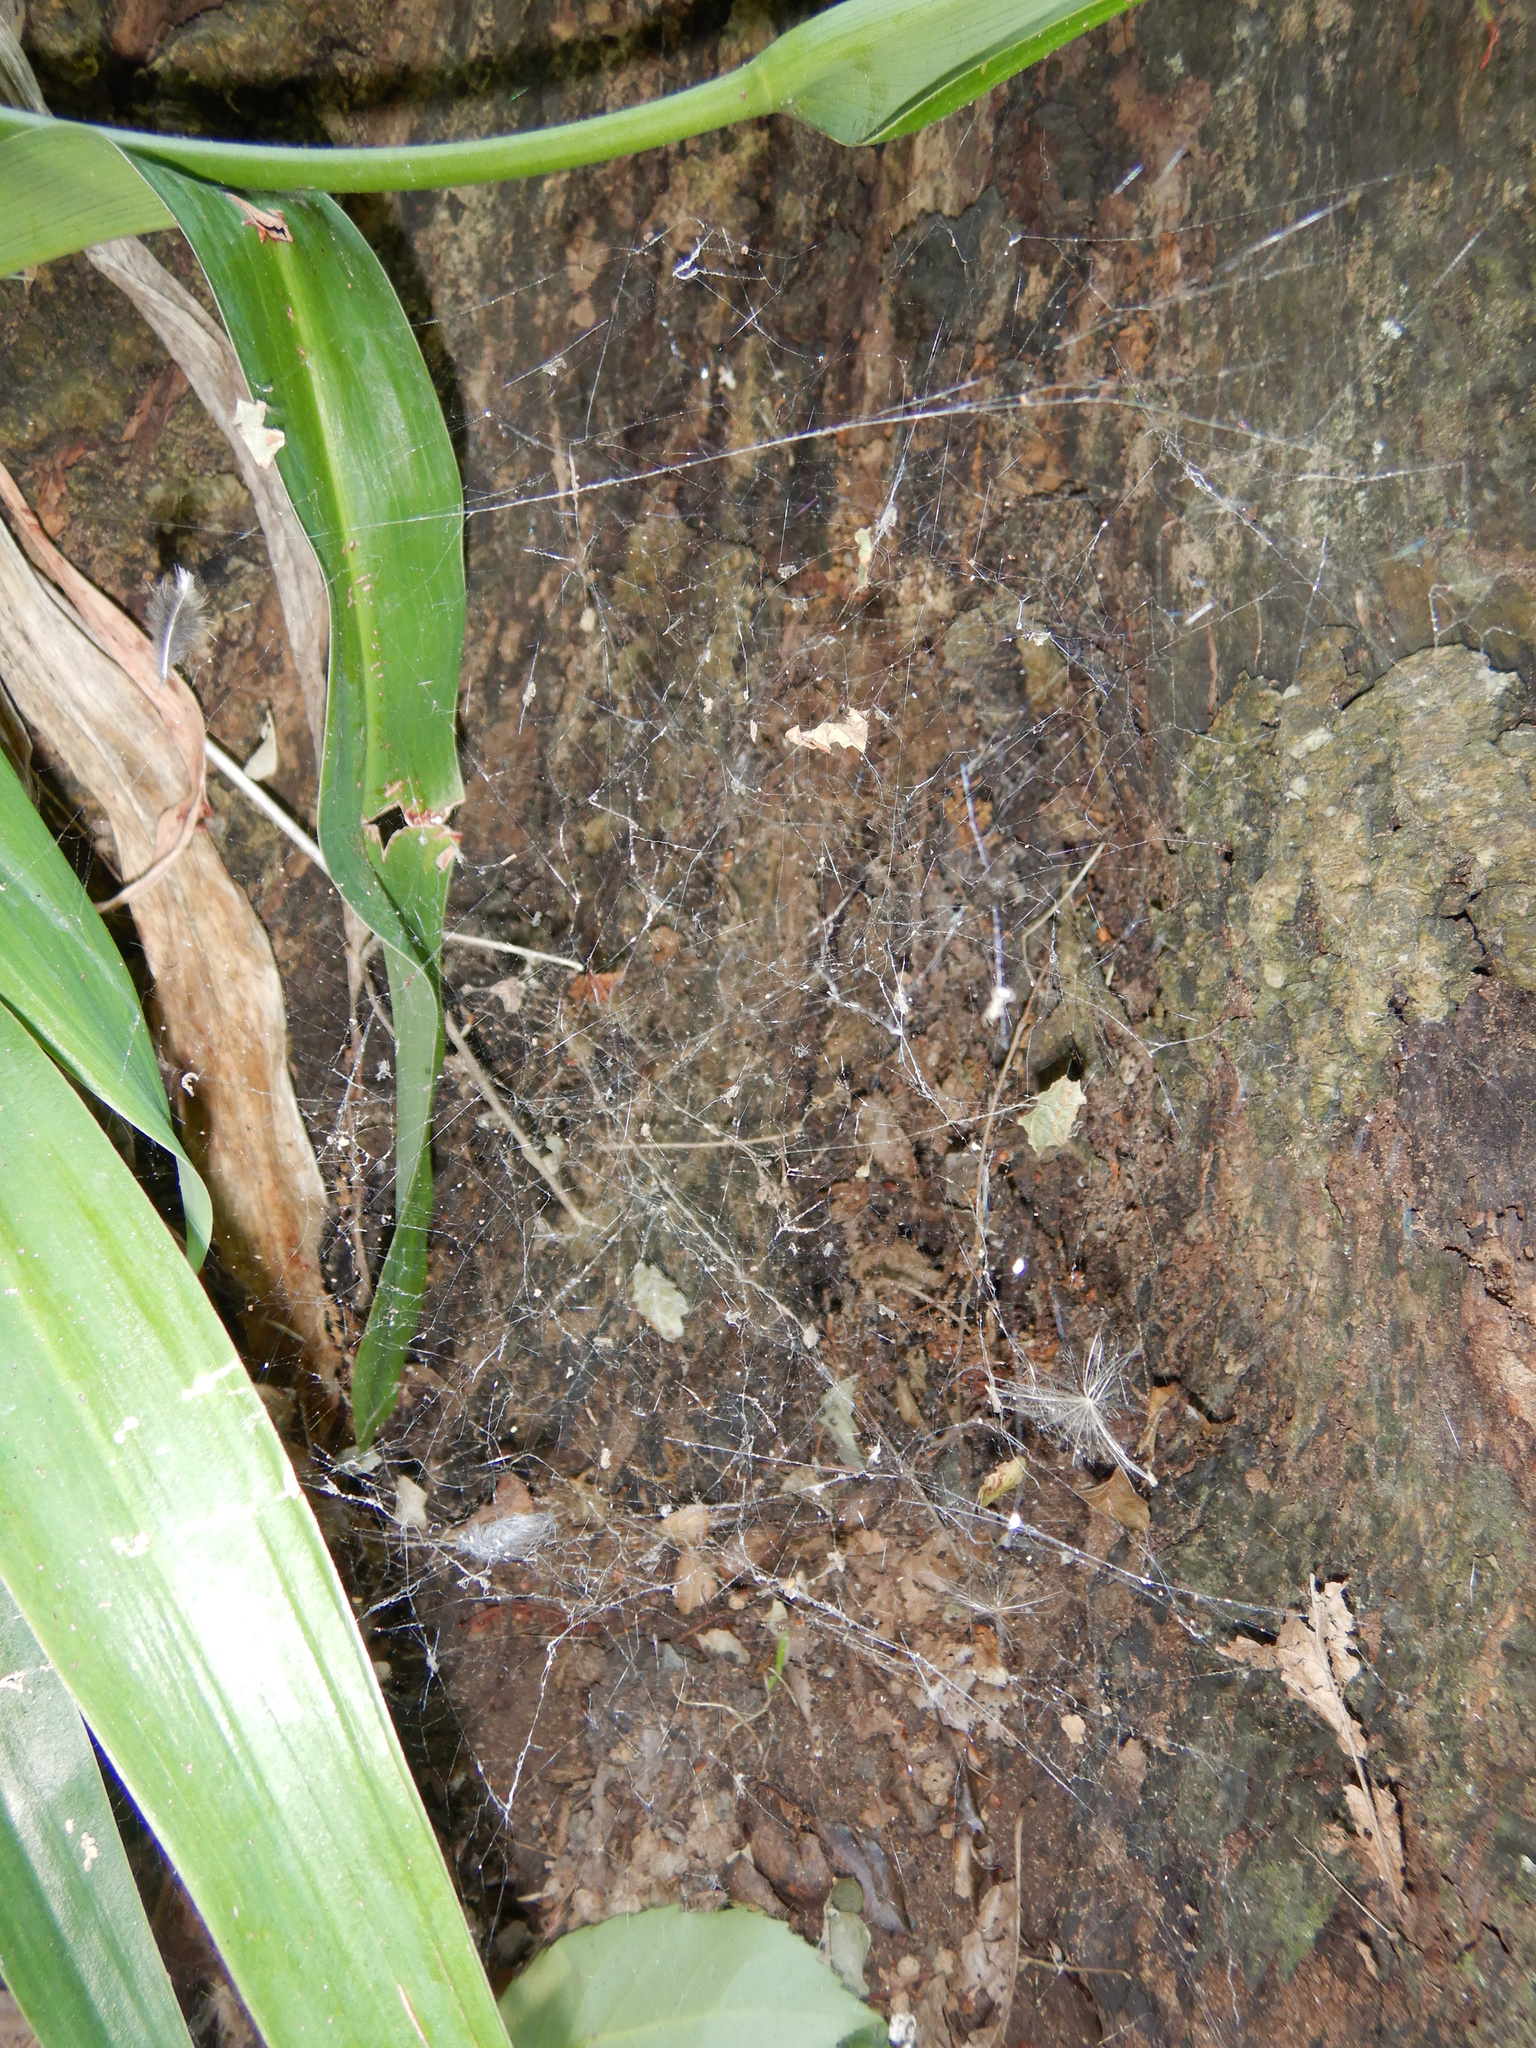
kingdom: Animalia
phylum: Arthropoda
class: Arachnida
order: Araneae
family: Uloboridae
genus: Philoponella
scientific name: Philoponella congregabilis
